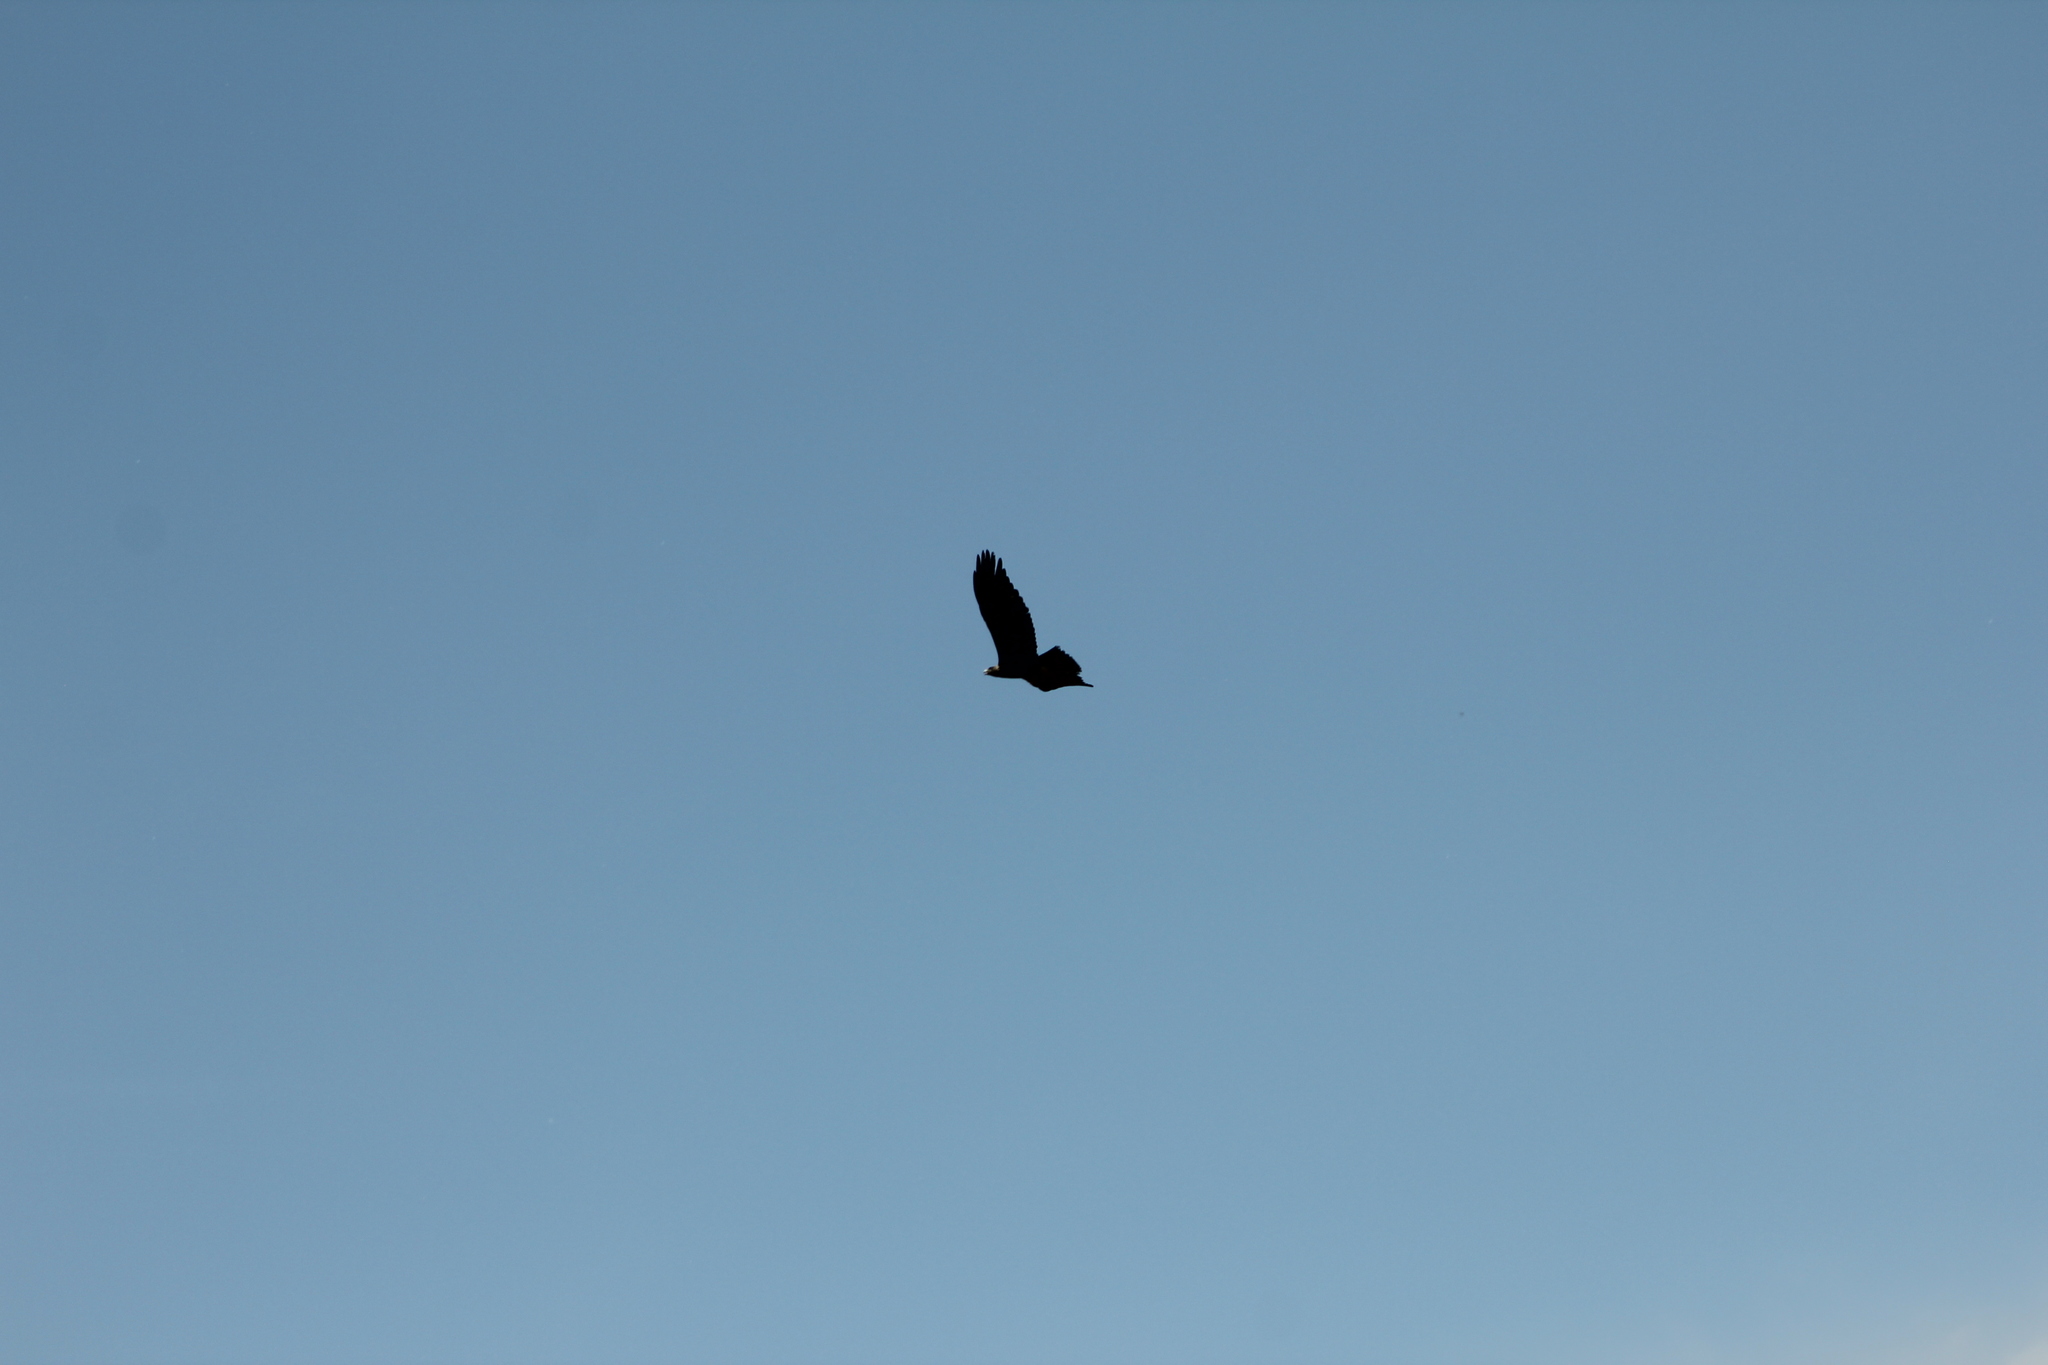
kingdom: Animalia
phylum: Chordata
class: Aves
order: Accipitriformes
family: Accipitridae
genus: Aquila
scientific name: Aquila chrysaetos
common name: Golden eagle
